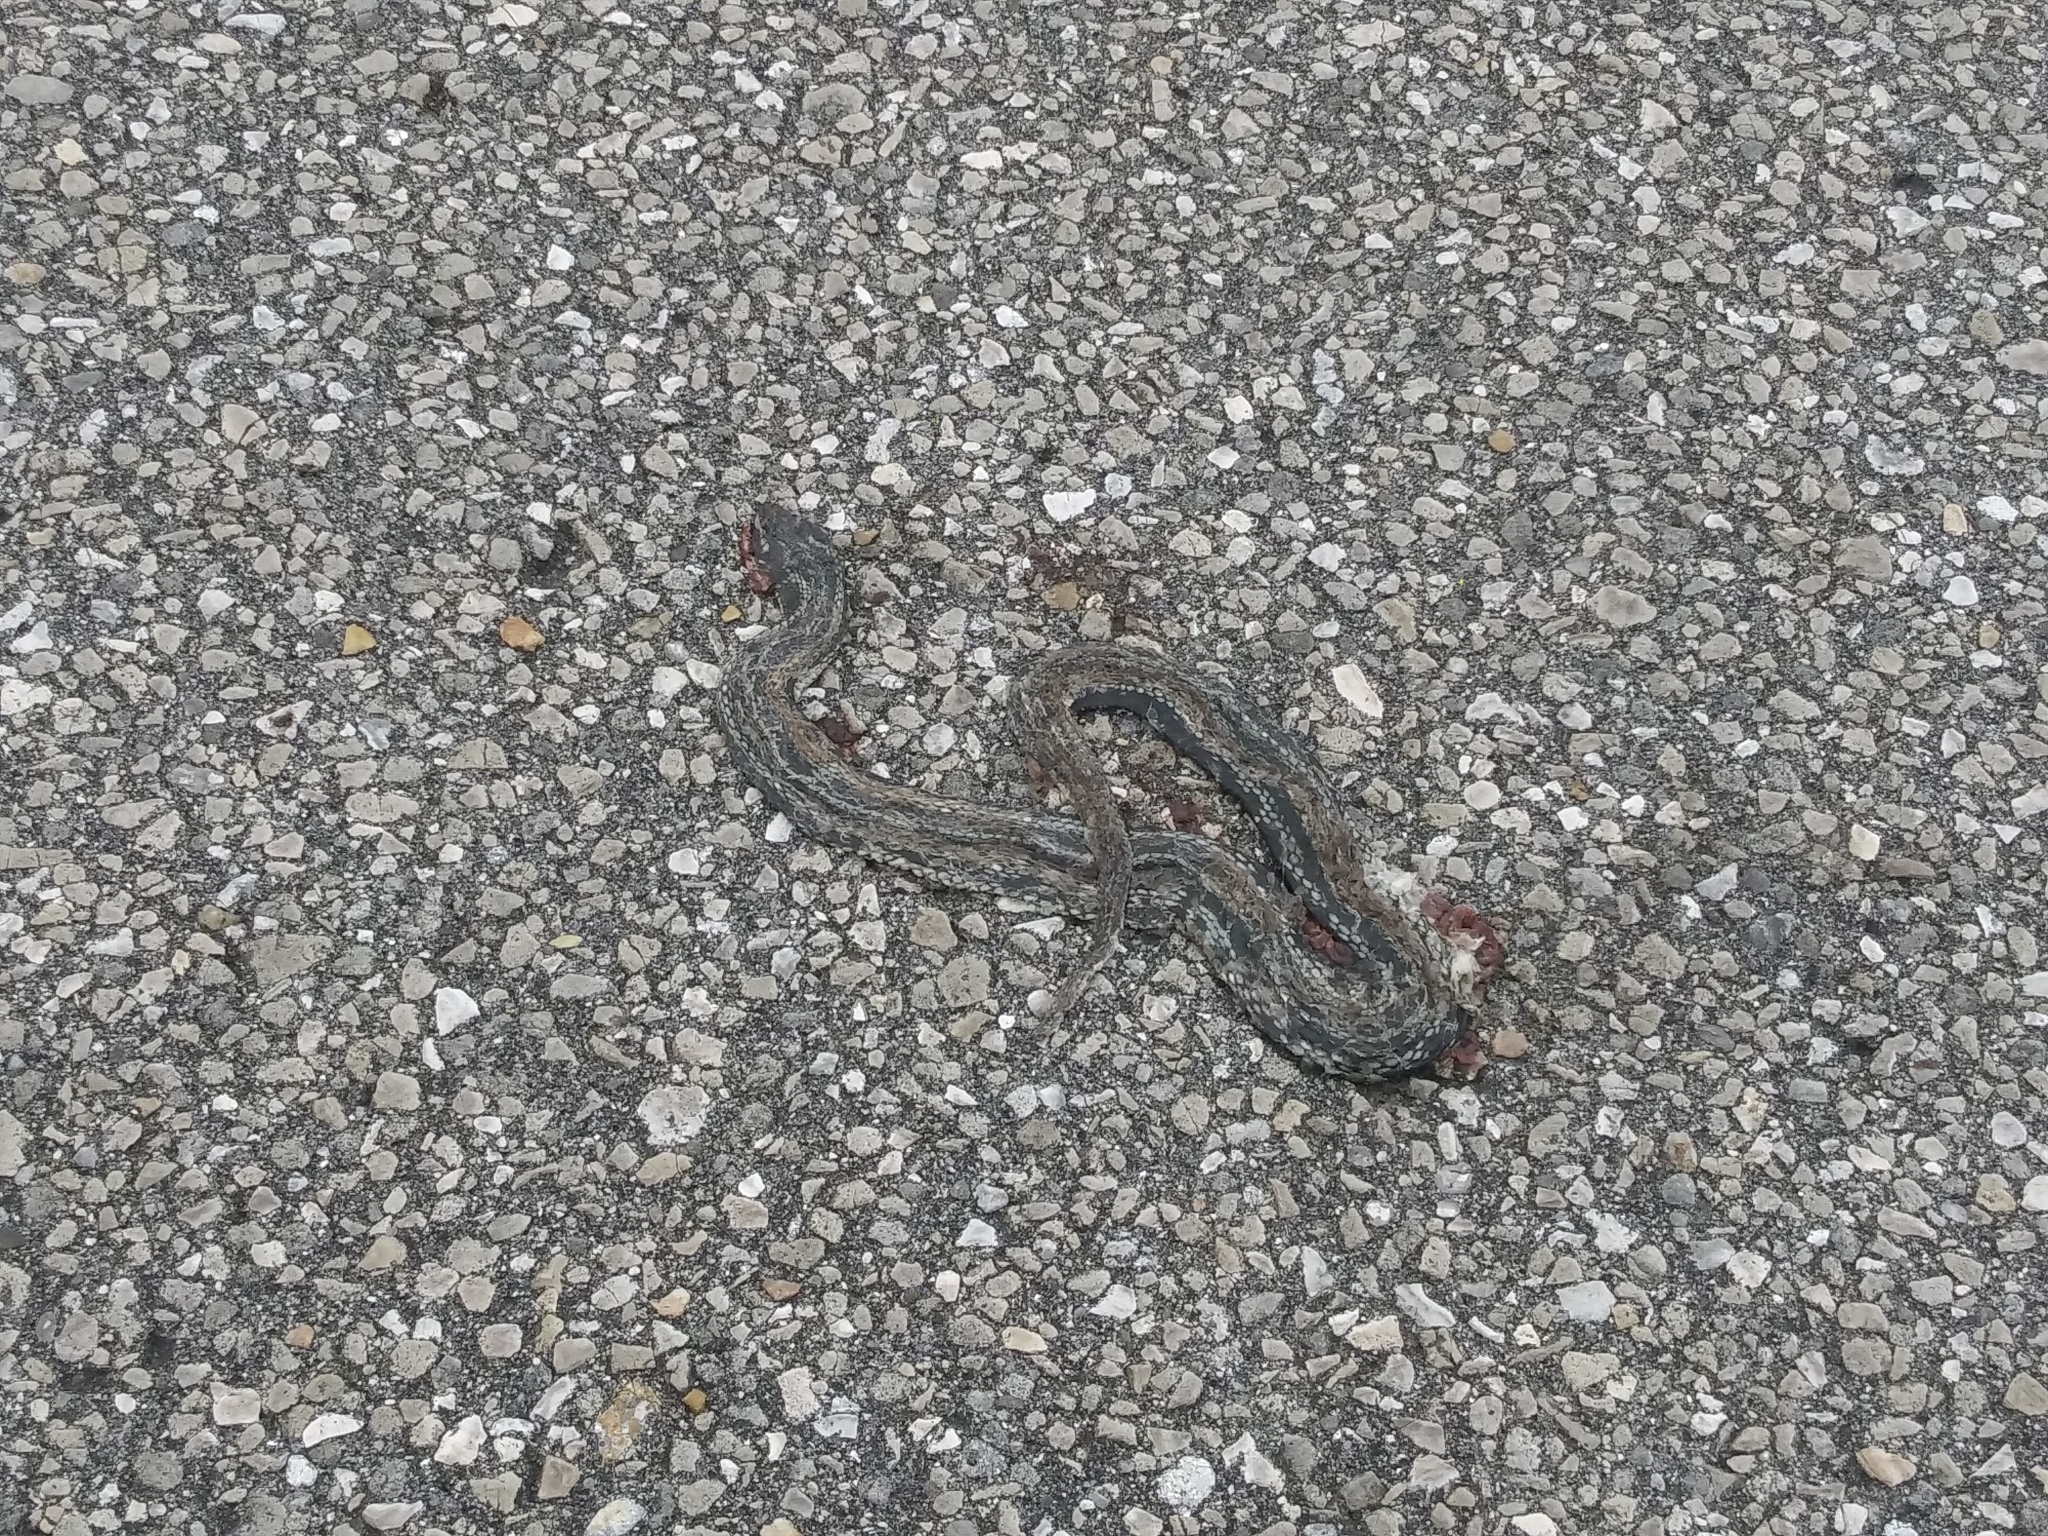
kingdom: Animalia
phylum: Chordata
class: Squamata
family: Colubridae
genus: Nerodia
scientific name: Nerodia clarkii
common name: Atlantic saltmarsh snake
